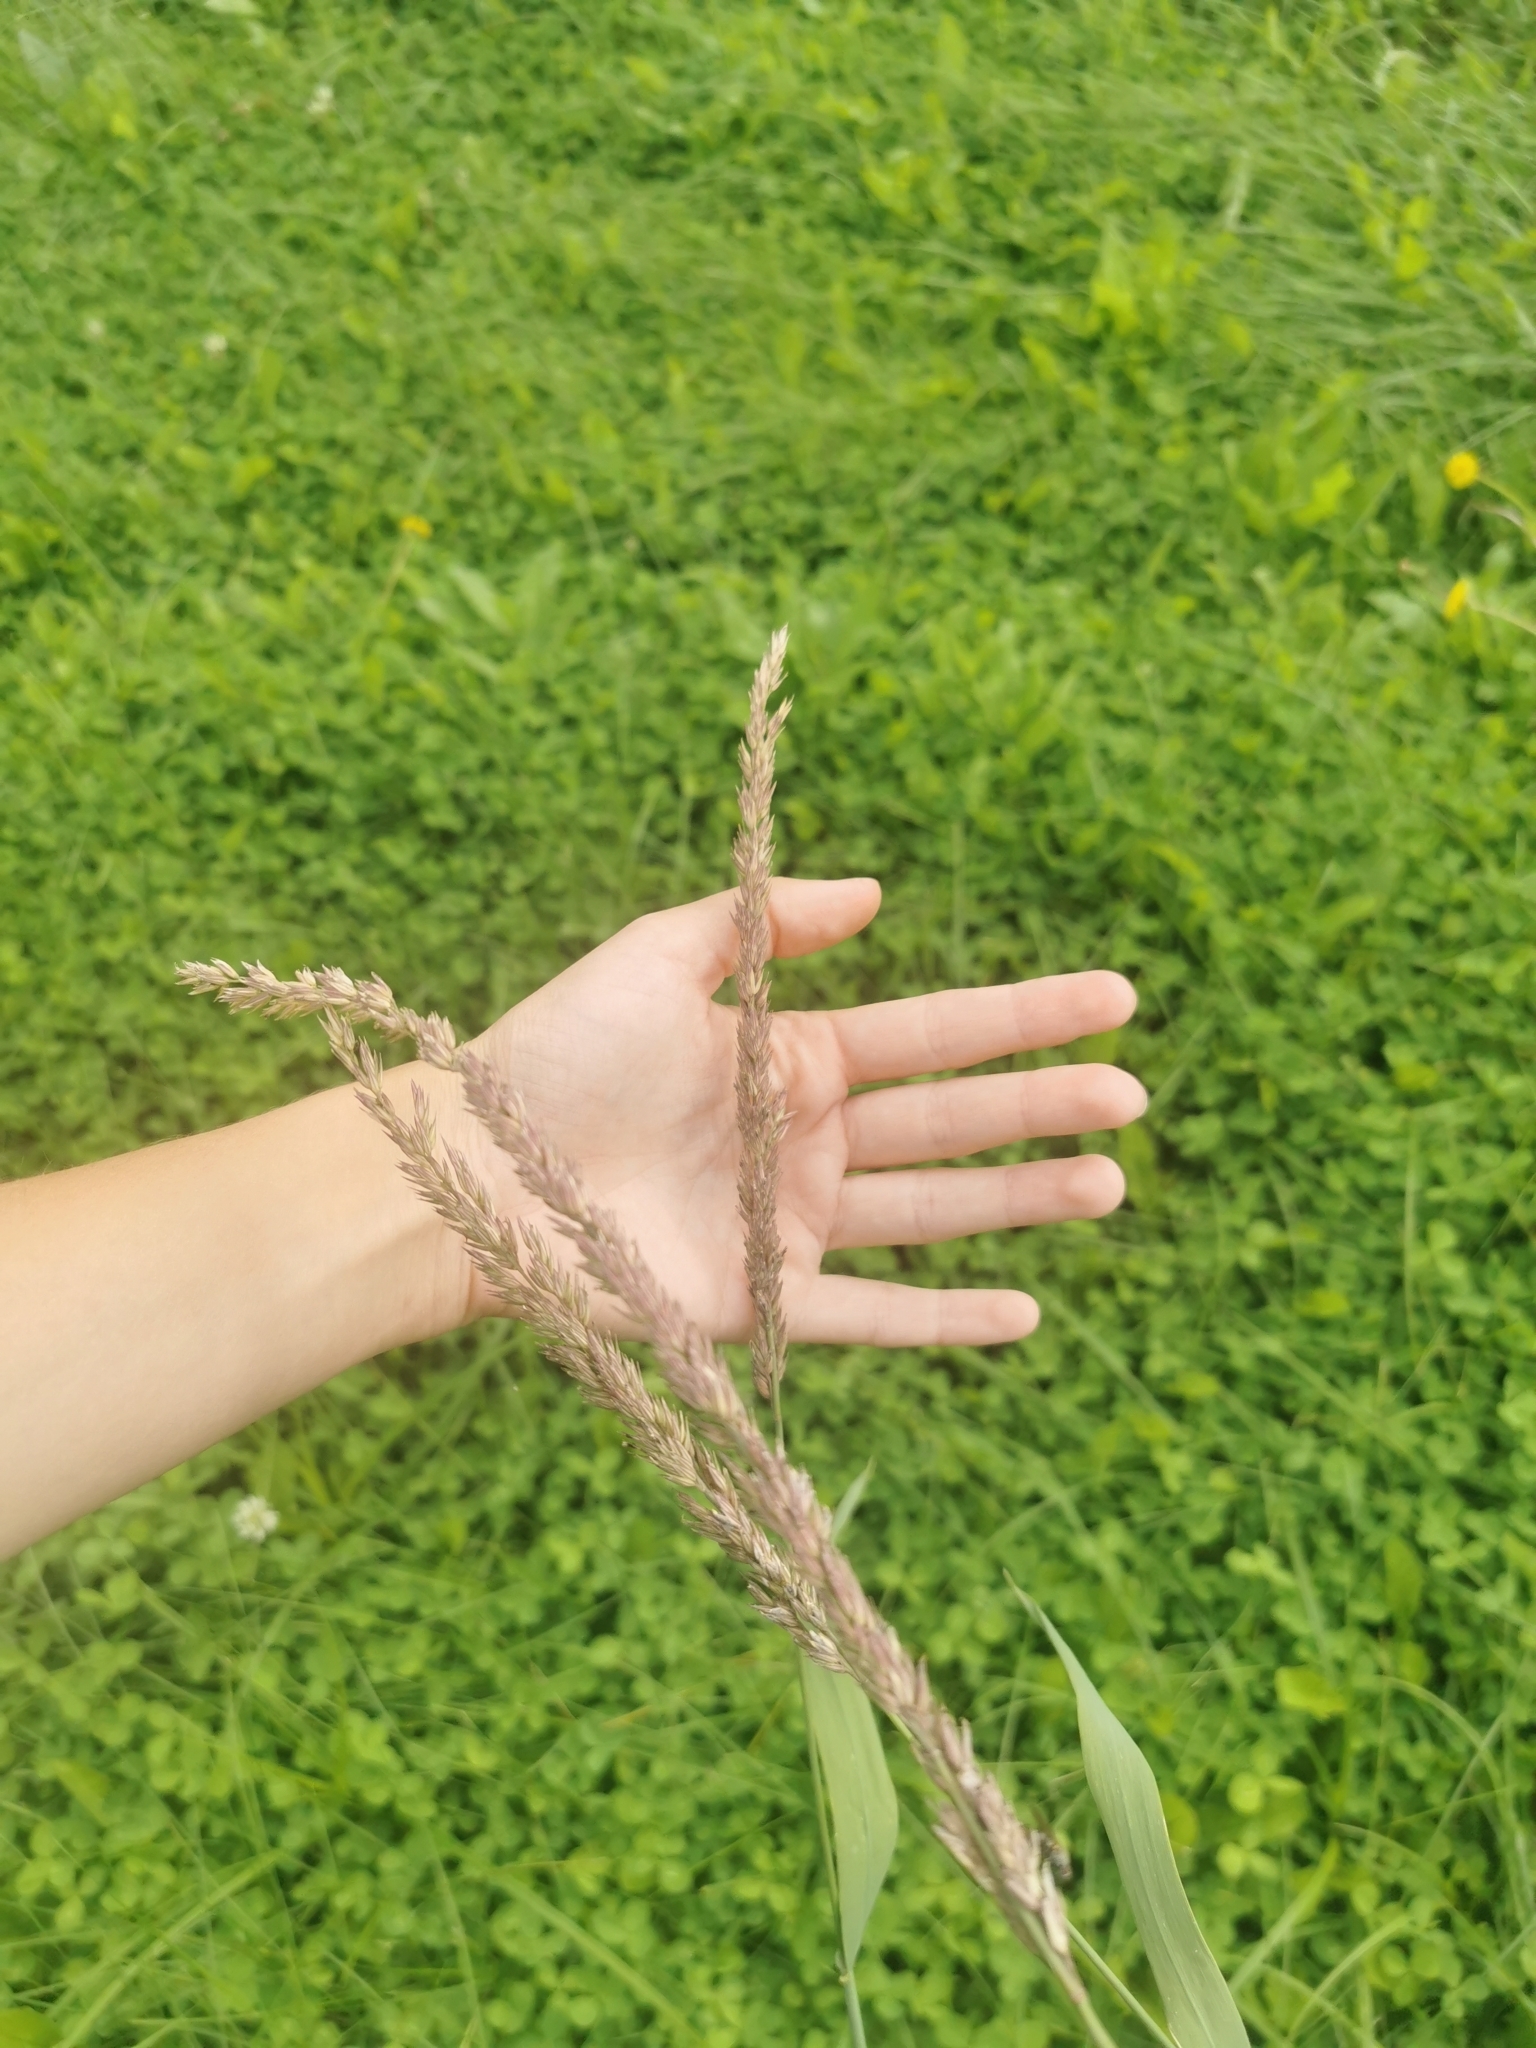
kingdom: Plantae
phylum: Tracheophyta
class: Liliopsida
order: Poales
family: Poaceae
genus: Phalaris
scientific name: Phalaris arundinacea
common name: Reed canary-grass
